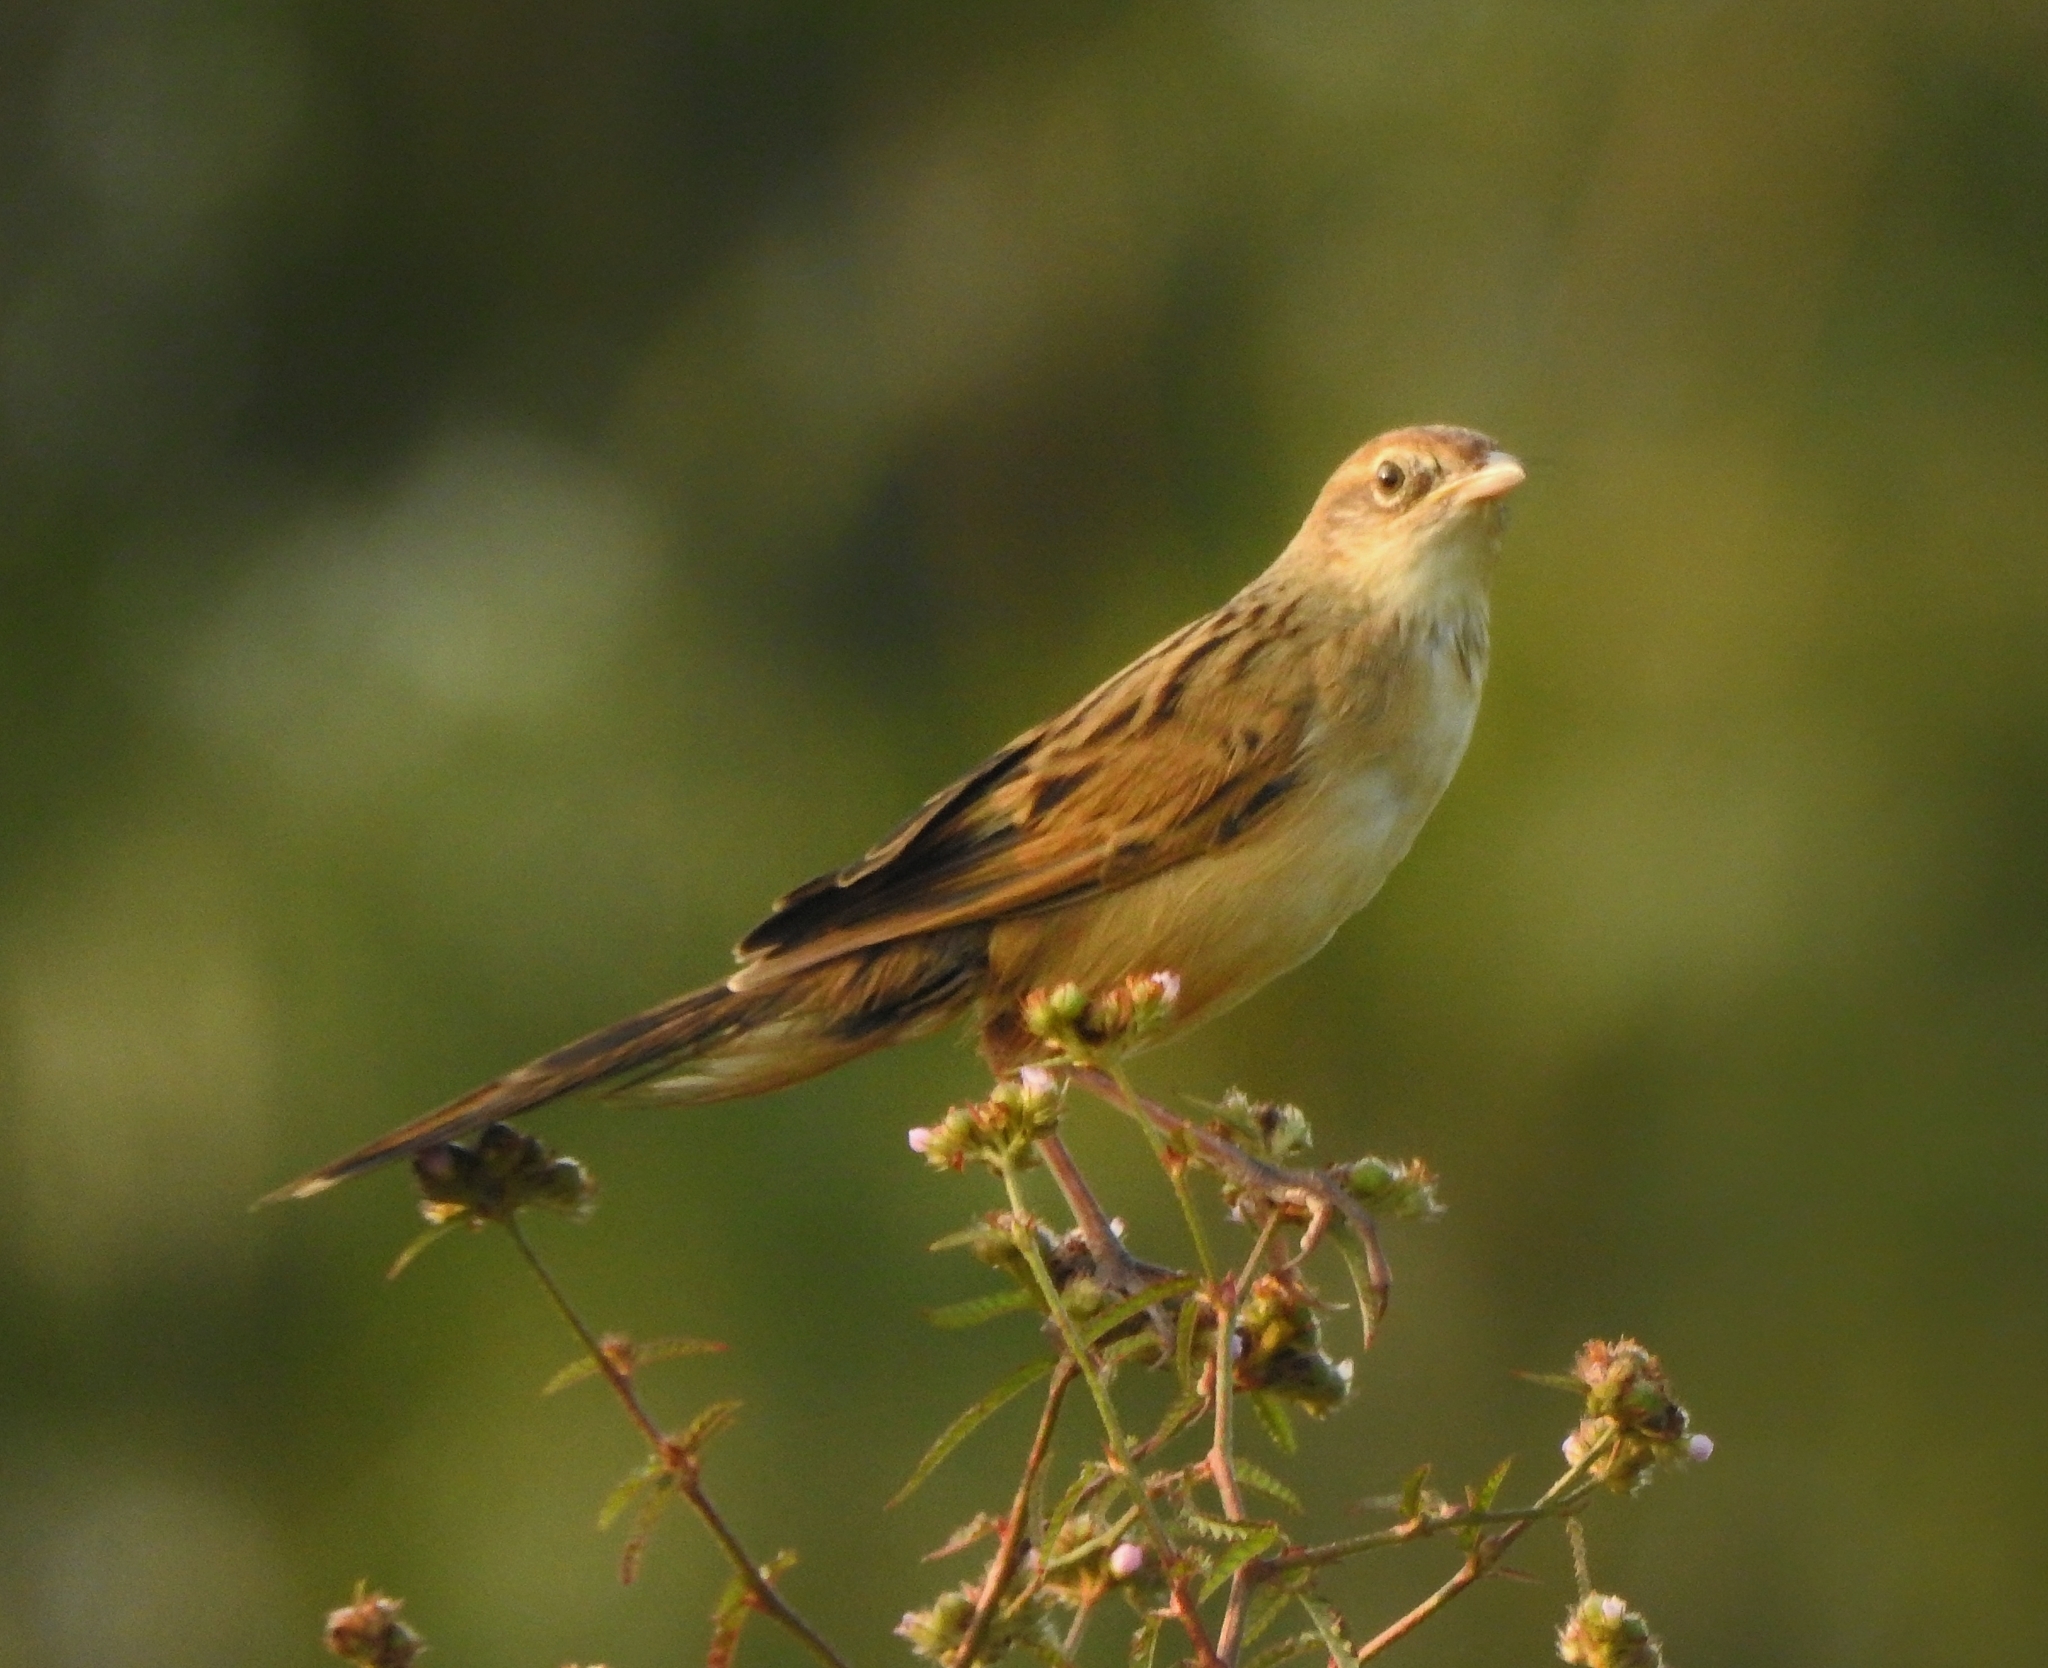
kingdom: Animalia
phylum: Chordata
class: Aves
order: Passeriformes
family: Locustellidae
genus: Chaetornis
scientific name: Chaetornis striata
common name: Bristled grassbird
